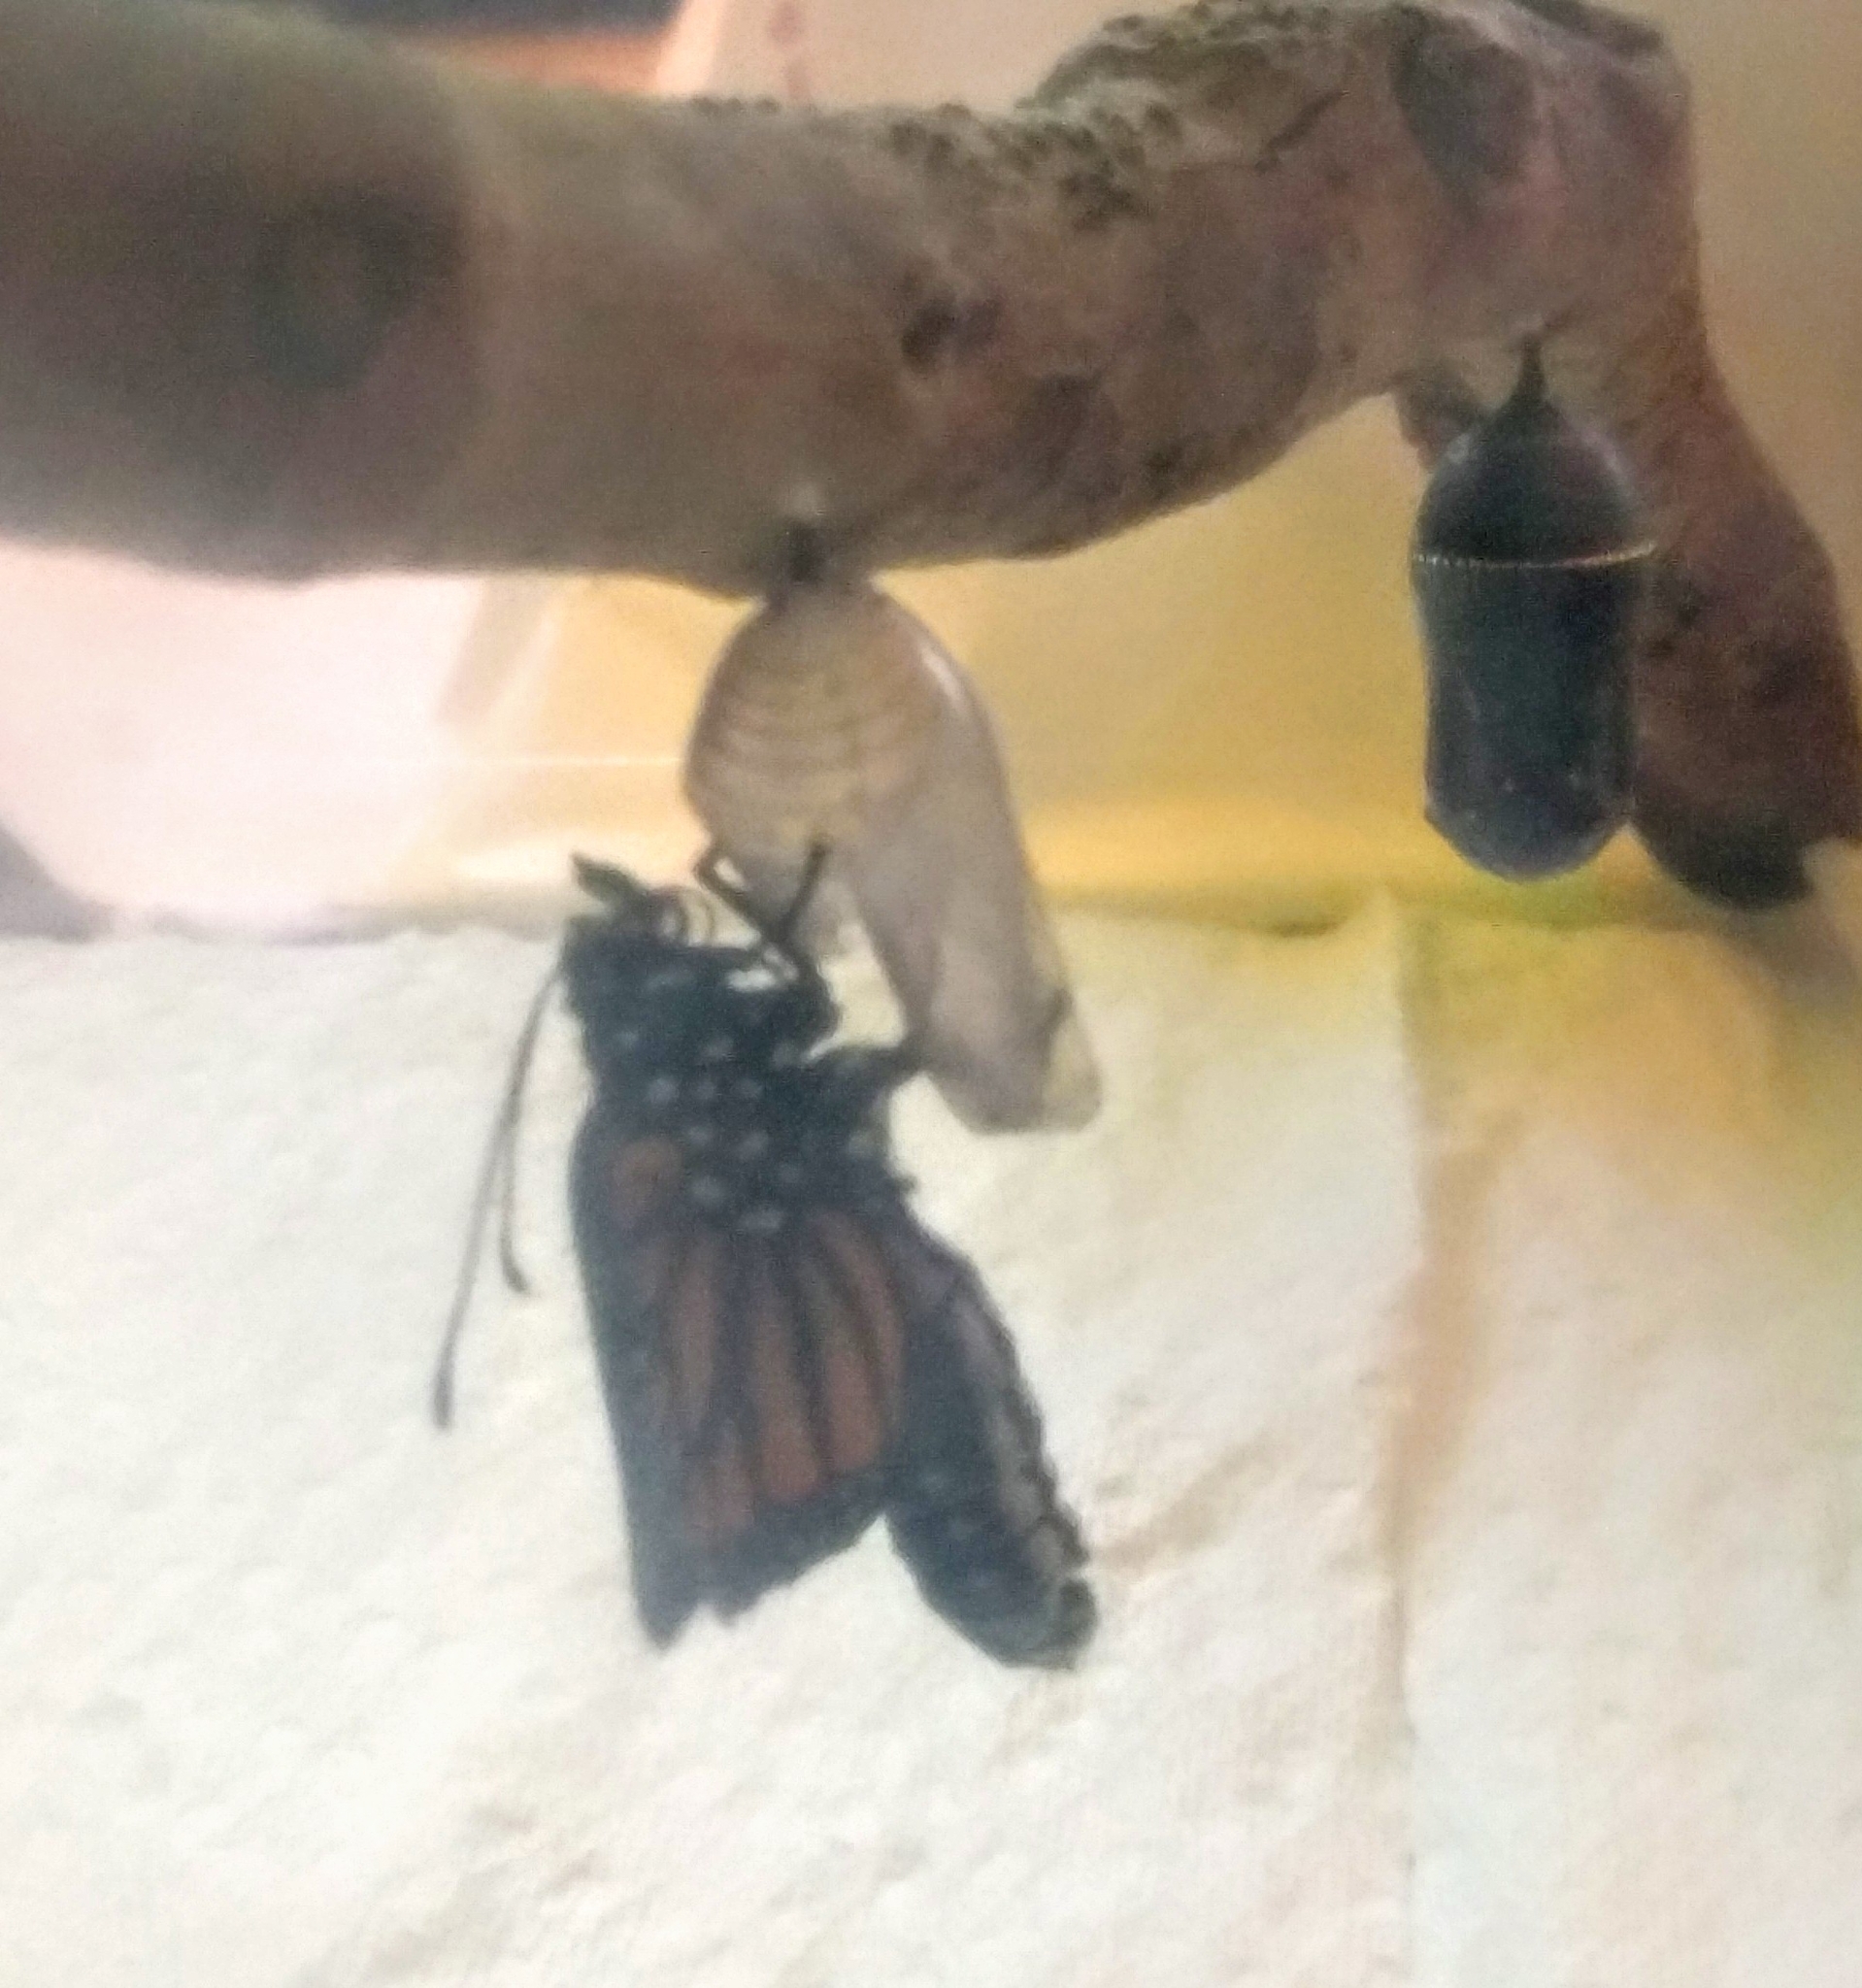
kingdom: Animalia
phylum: Arthropoda
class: Insecta
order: Lepidoptera
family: Nymphalidae
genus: Danaus
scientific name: Danaus plexippus
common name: Monarch
